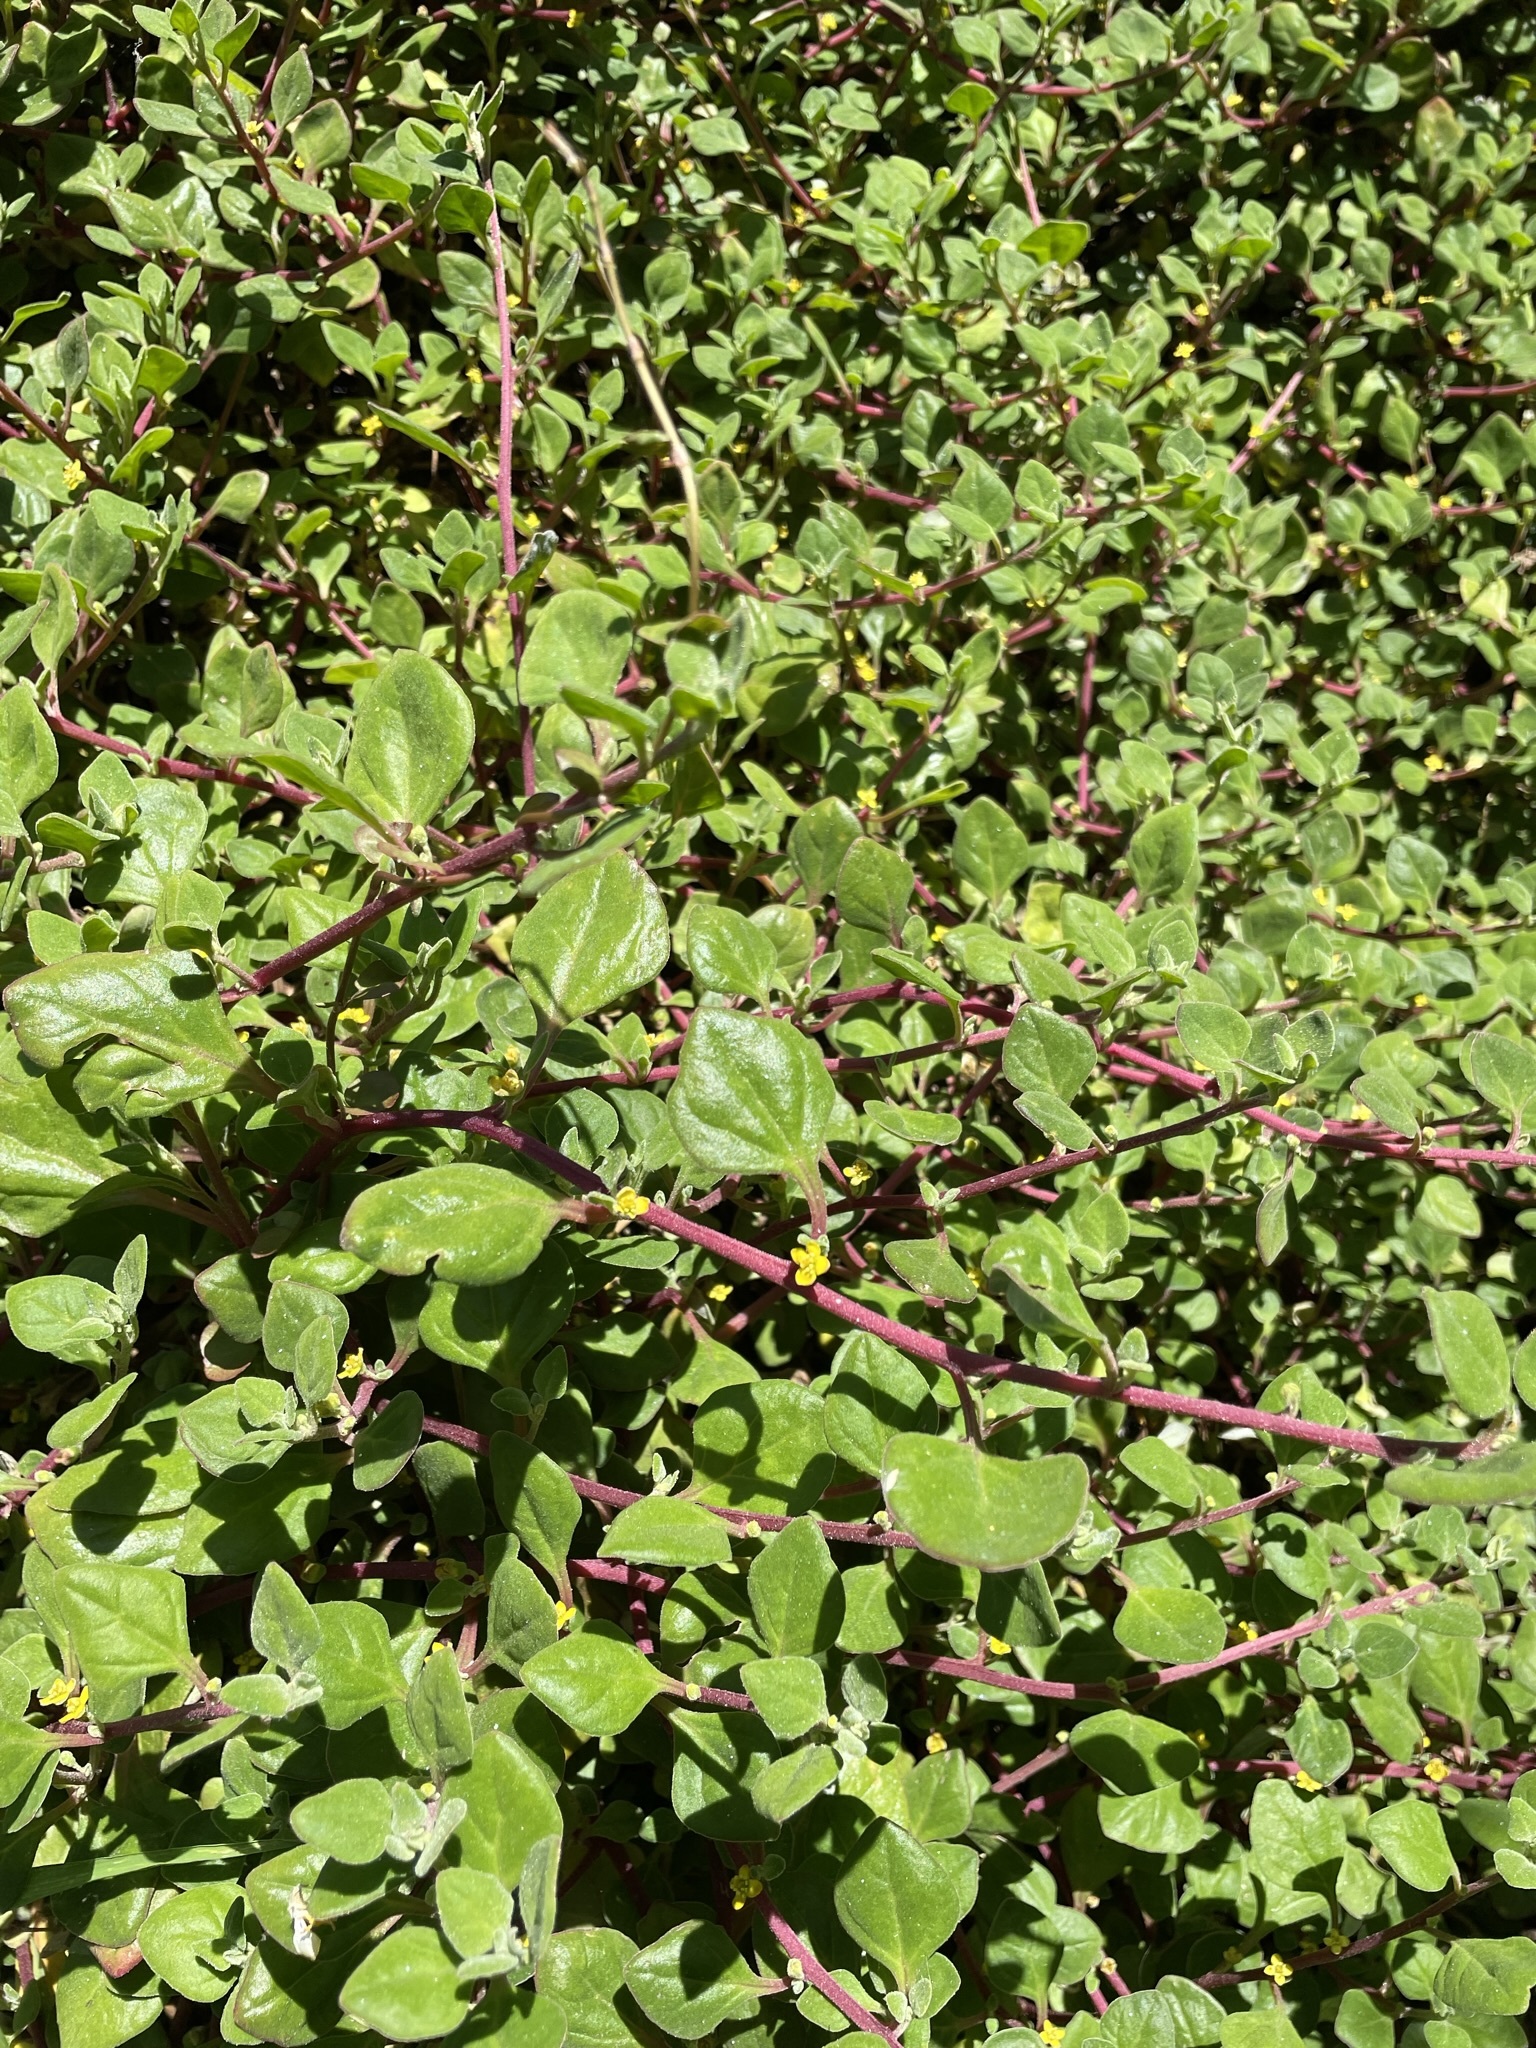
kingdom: Plantae
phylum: Tracheophyta
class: Magnoliopsida
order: Caryophyllales
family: Aizoaceae
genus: Tetragonia
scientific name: Tetragonia implexicoma
